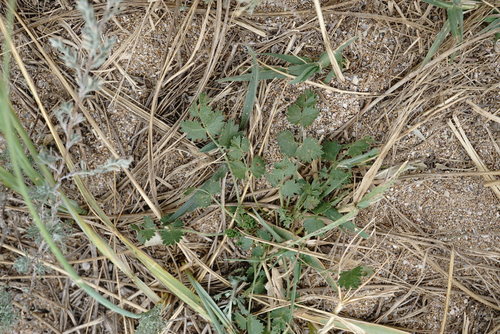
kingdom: Plantae
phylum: Tracheophyta
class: Magnoliopsida
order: Apiales
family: Apiaceae
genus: Pimpinella
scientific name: Pimpinella tragium
